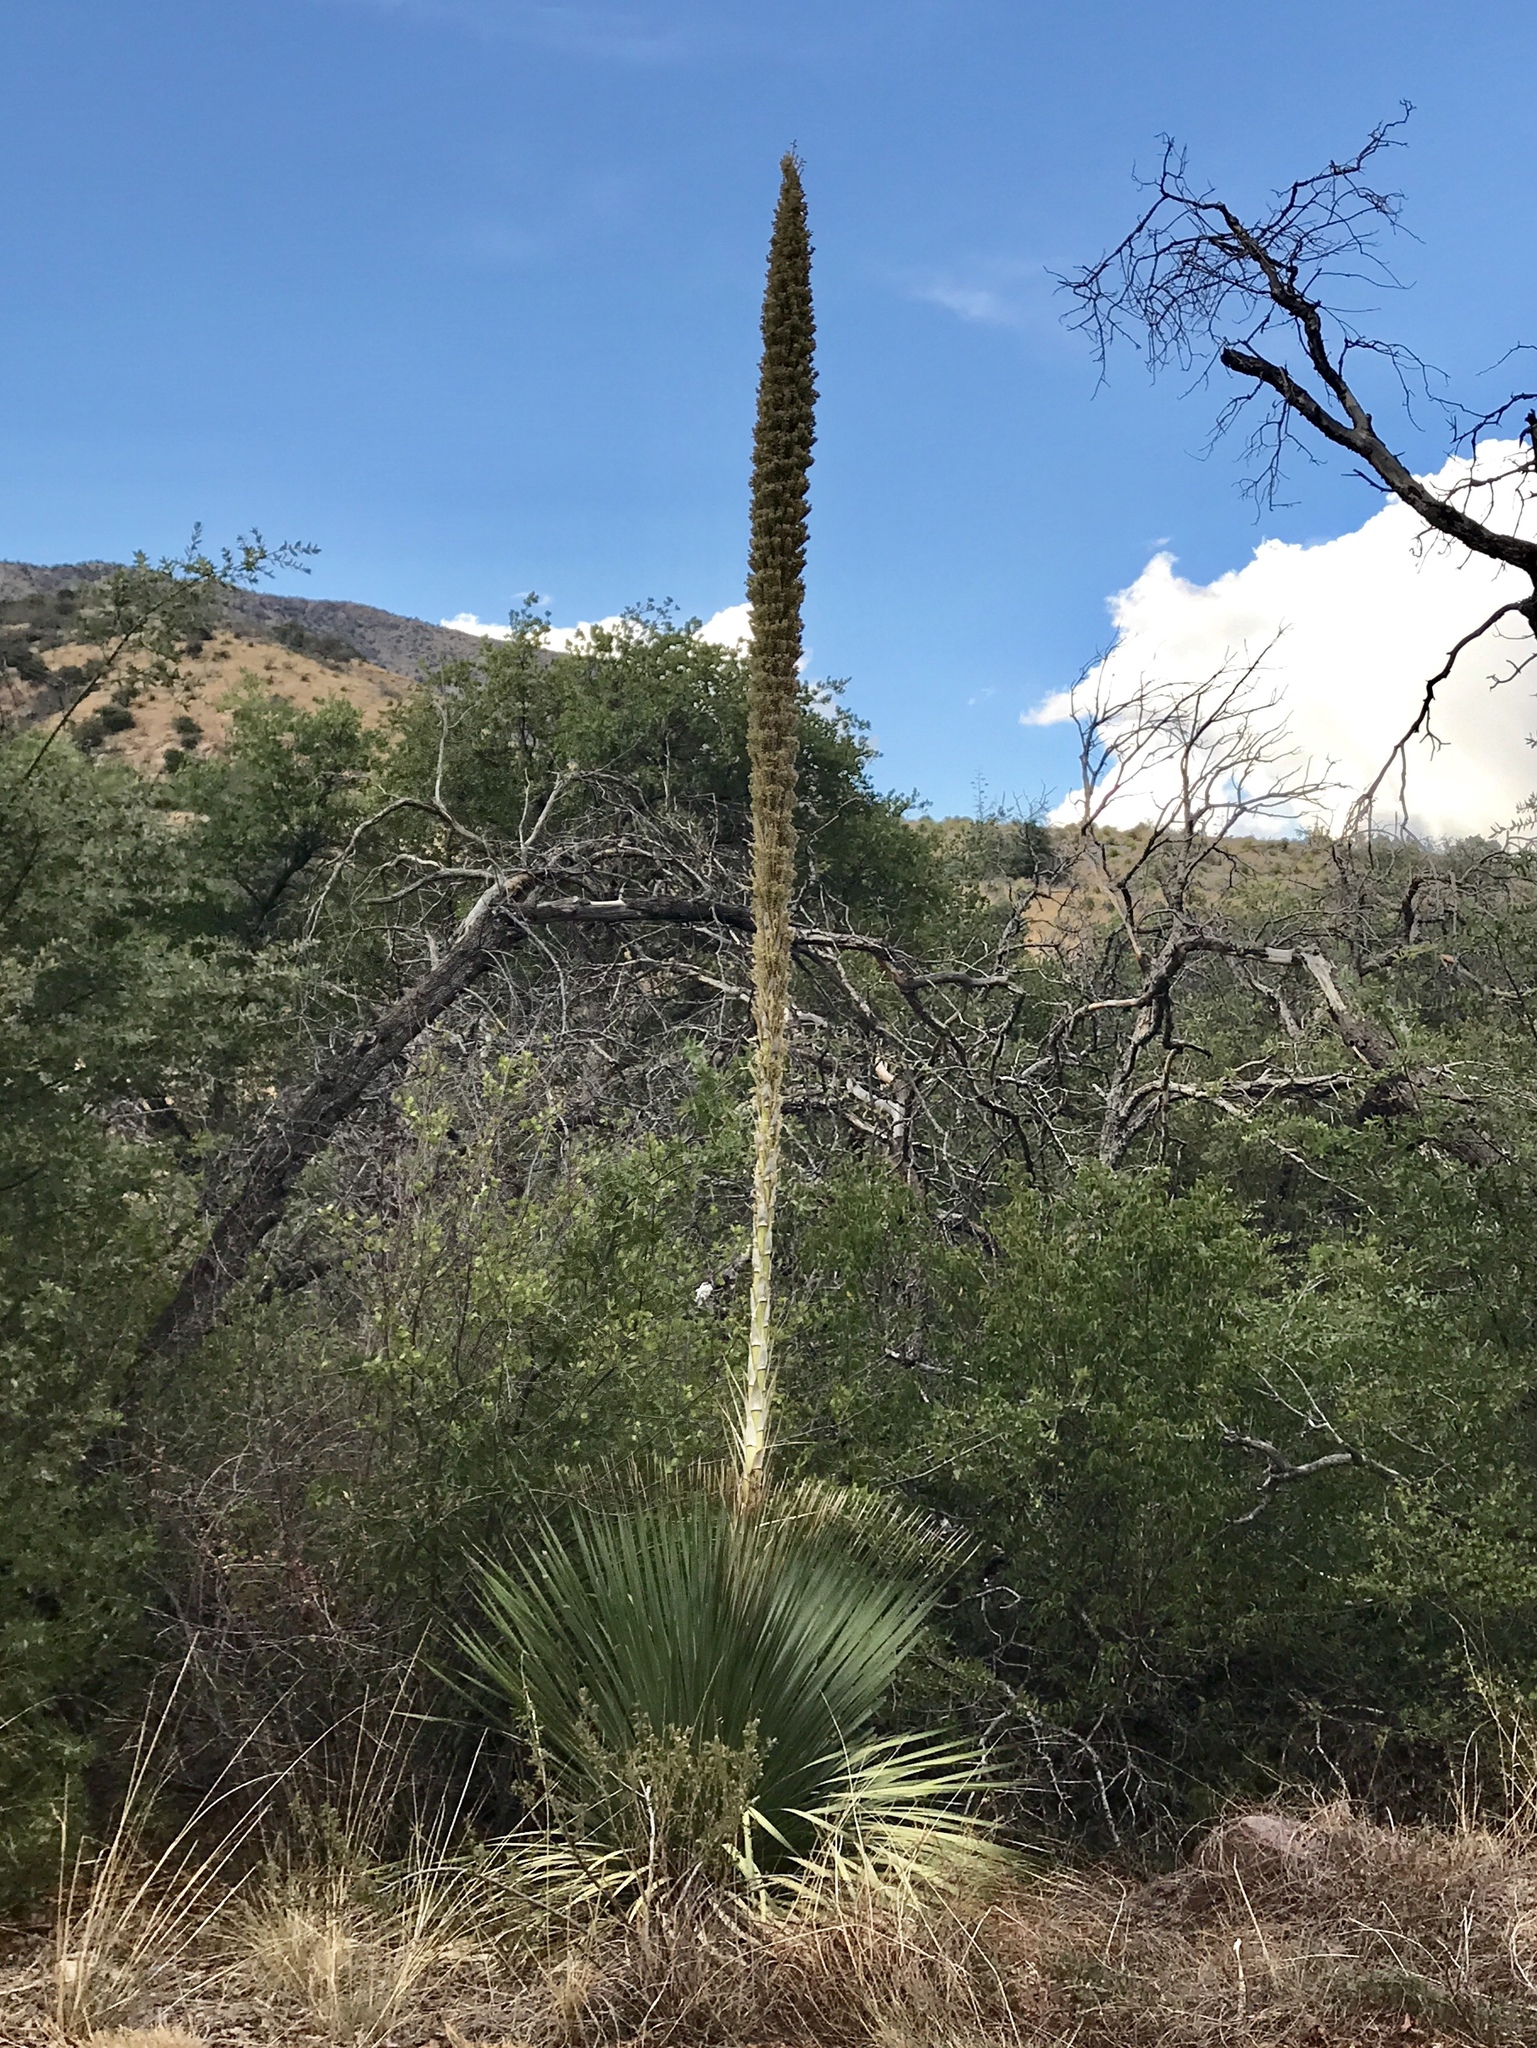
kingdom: Plantae
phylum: Tracheophyta
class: Liliopsida
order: Asparagales
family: Asparagaceae
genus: Dasylirion
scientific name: Dasylirion wheeleri
